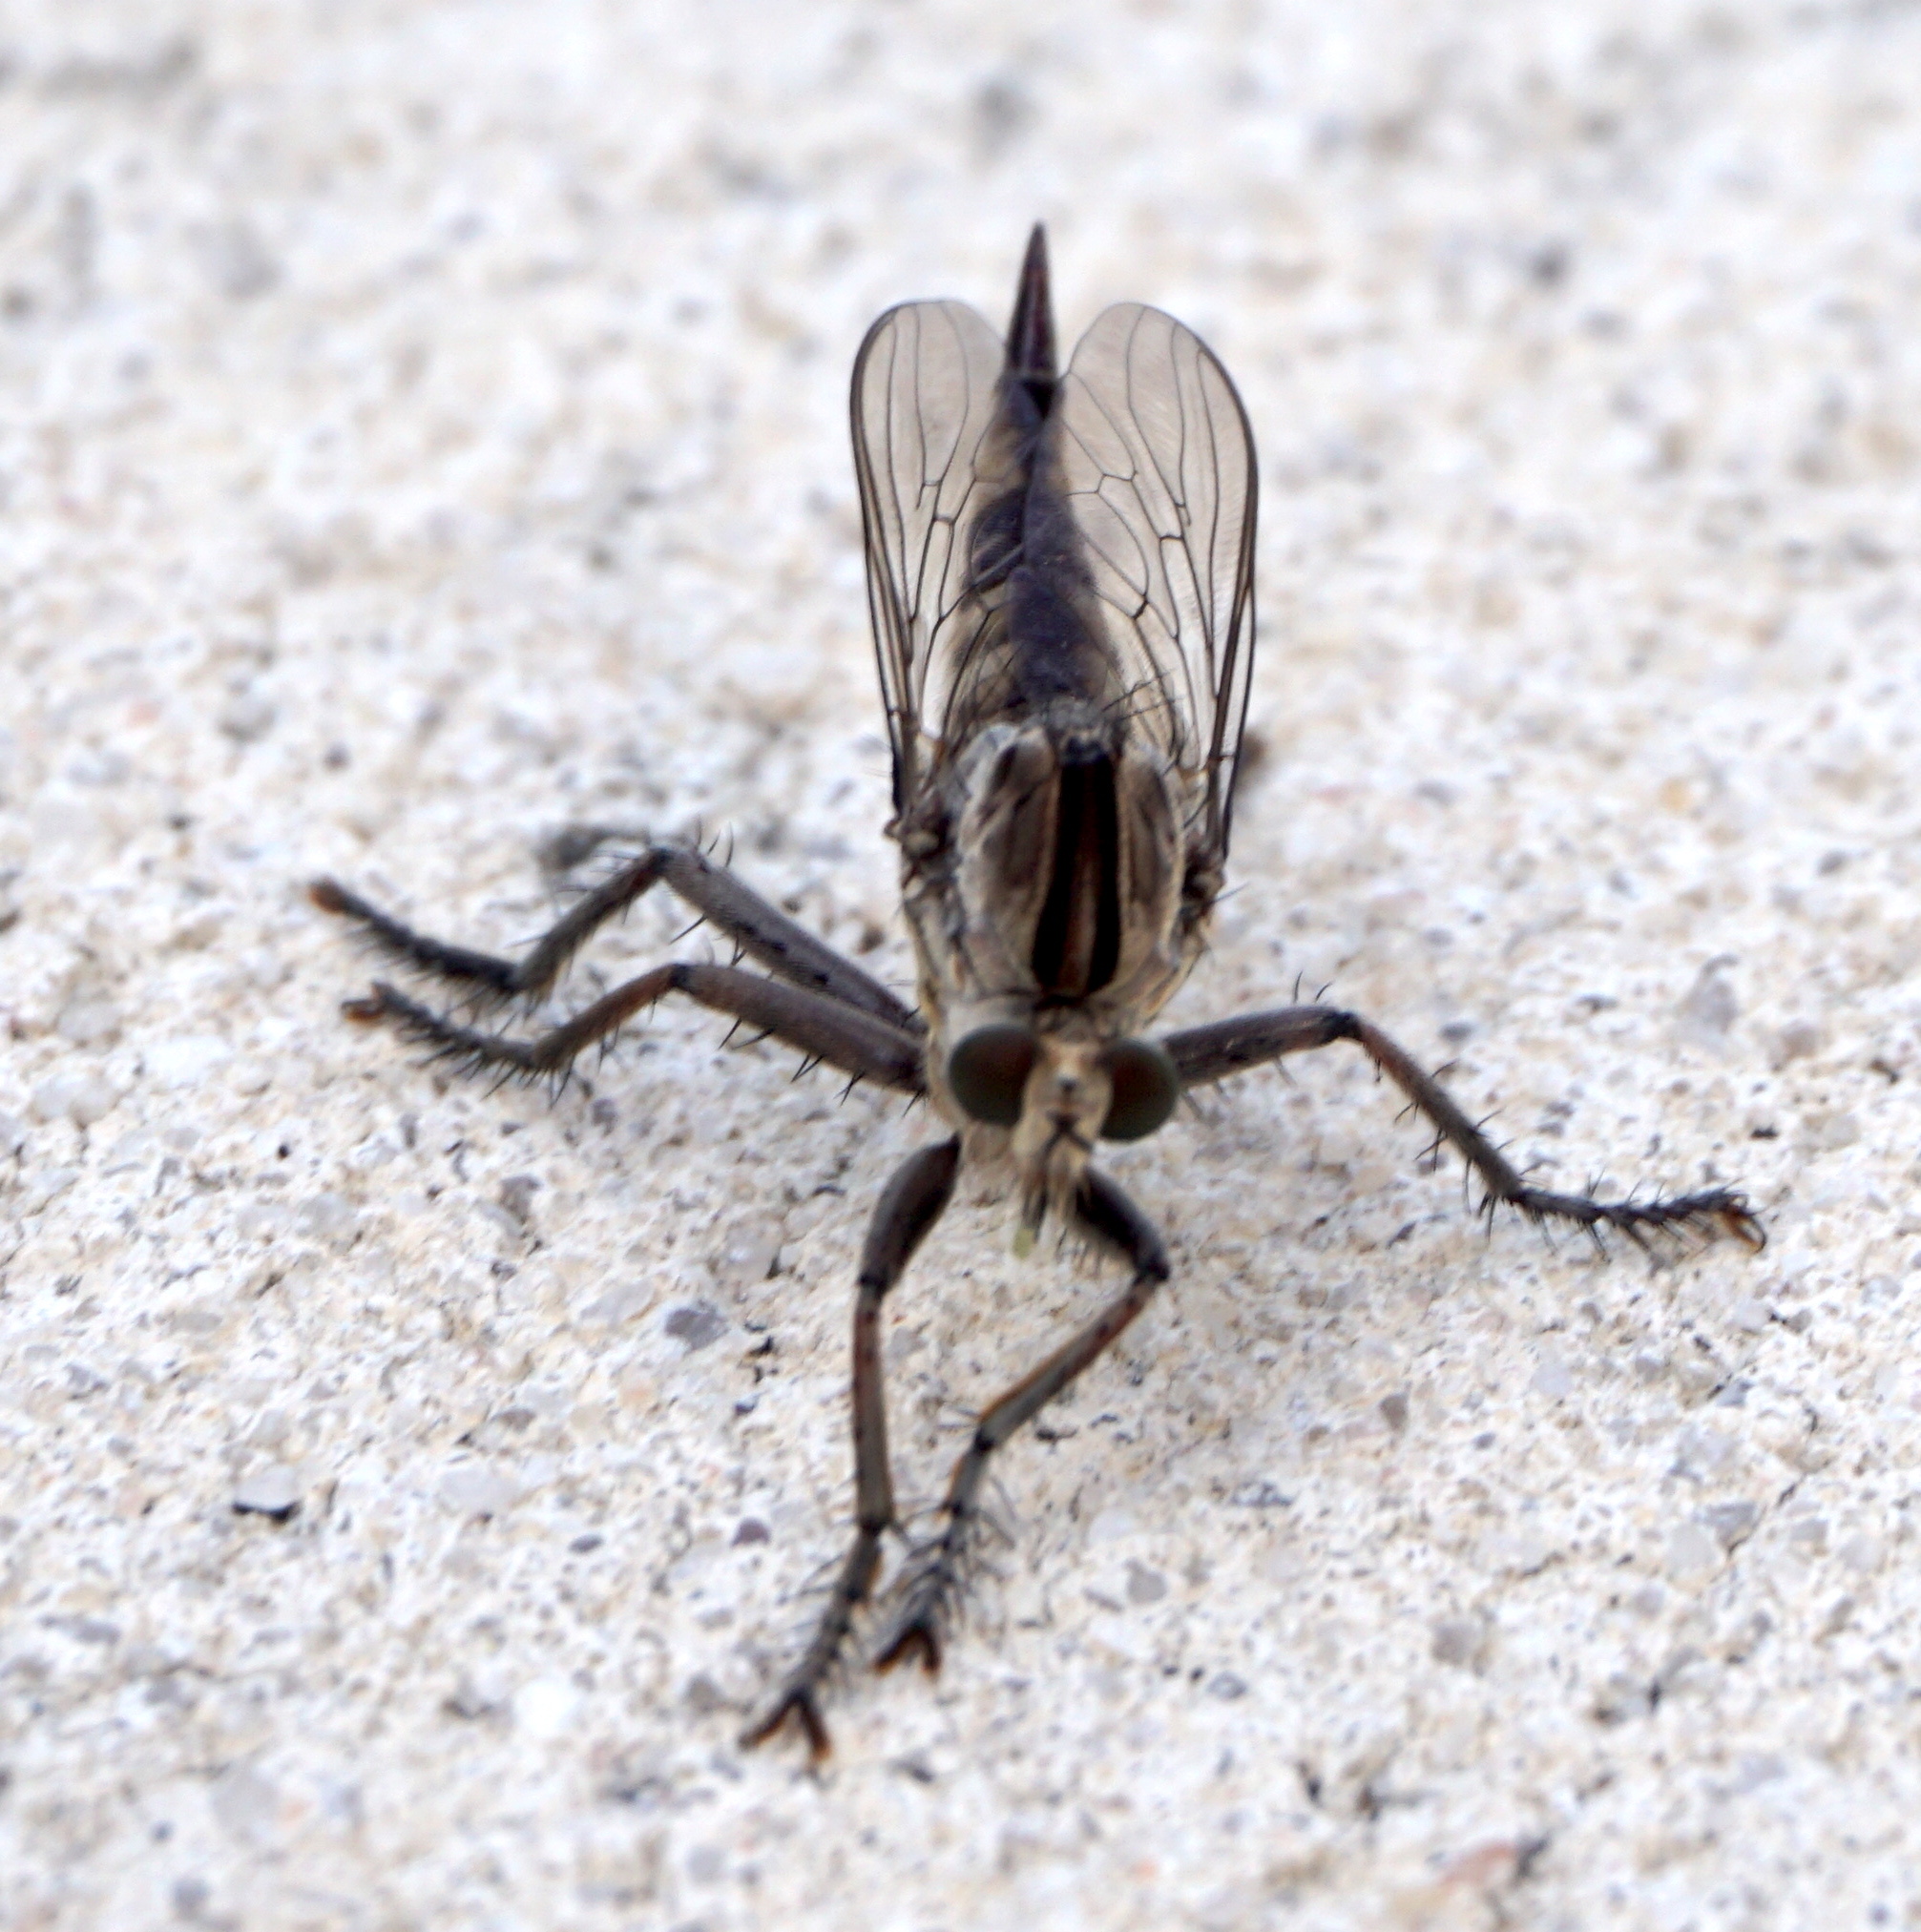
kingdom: Animalia
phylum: Arthropoda
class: Insecta
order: Diptera
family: Asilidae
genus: Triorla
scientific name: Triorla interrupta
